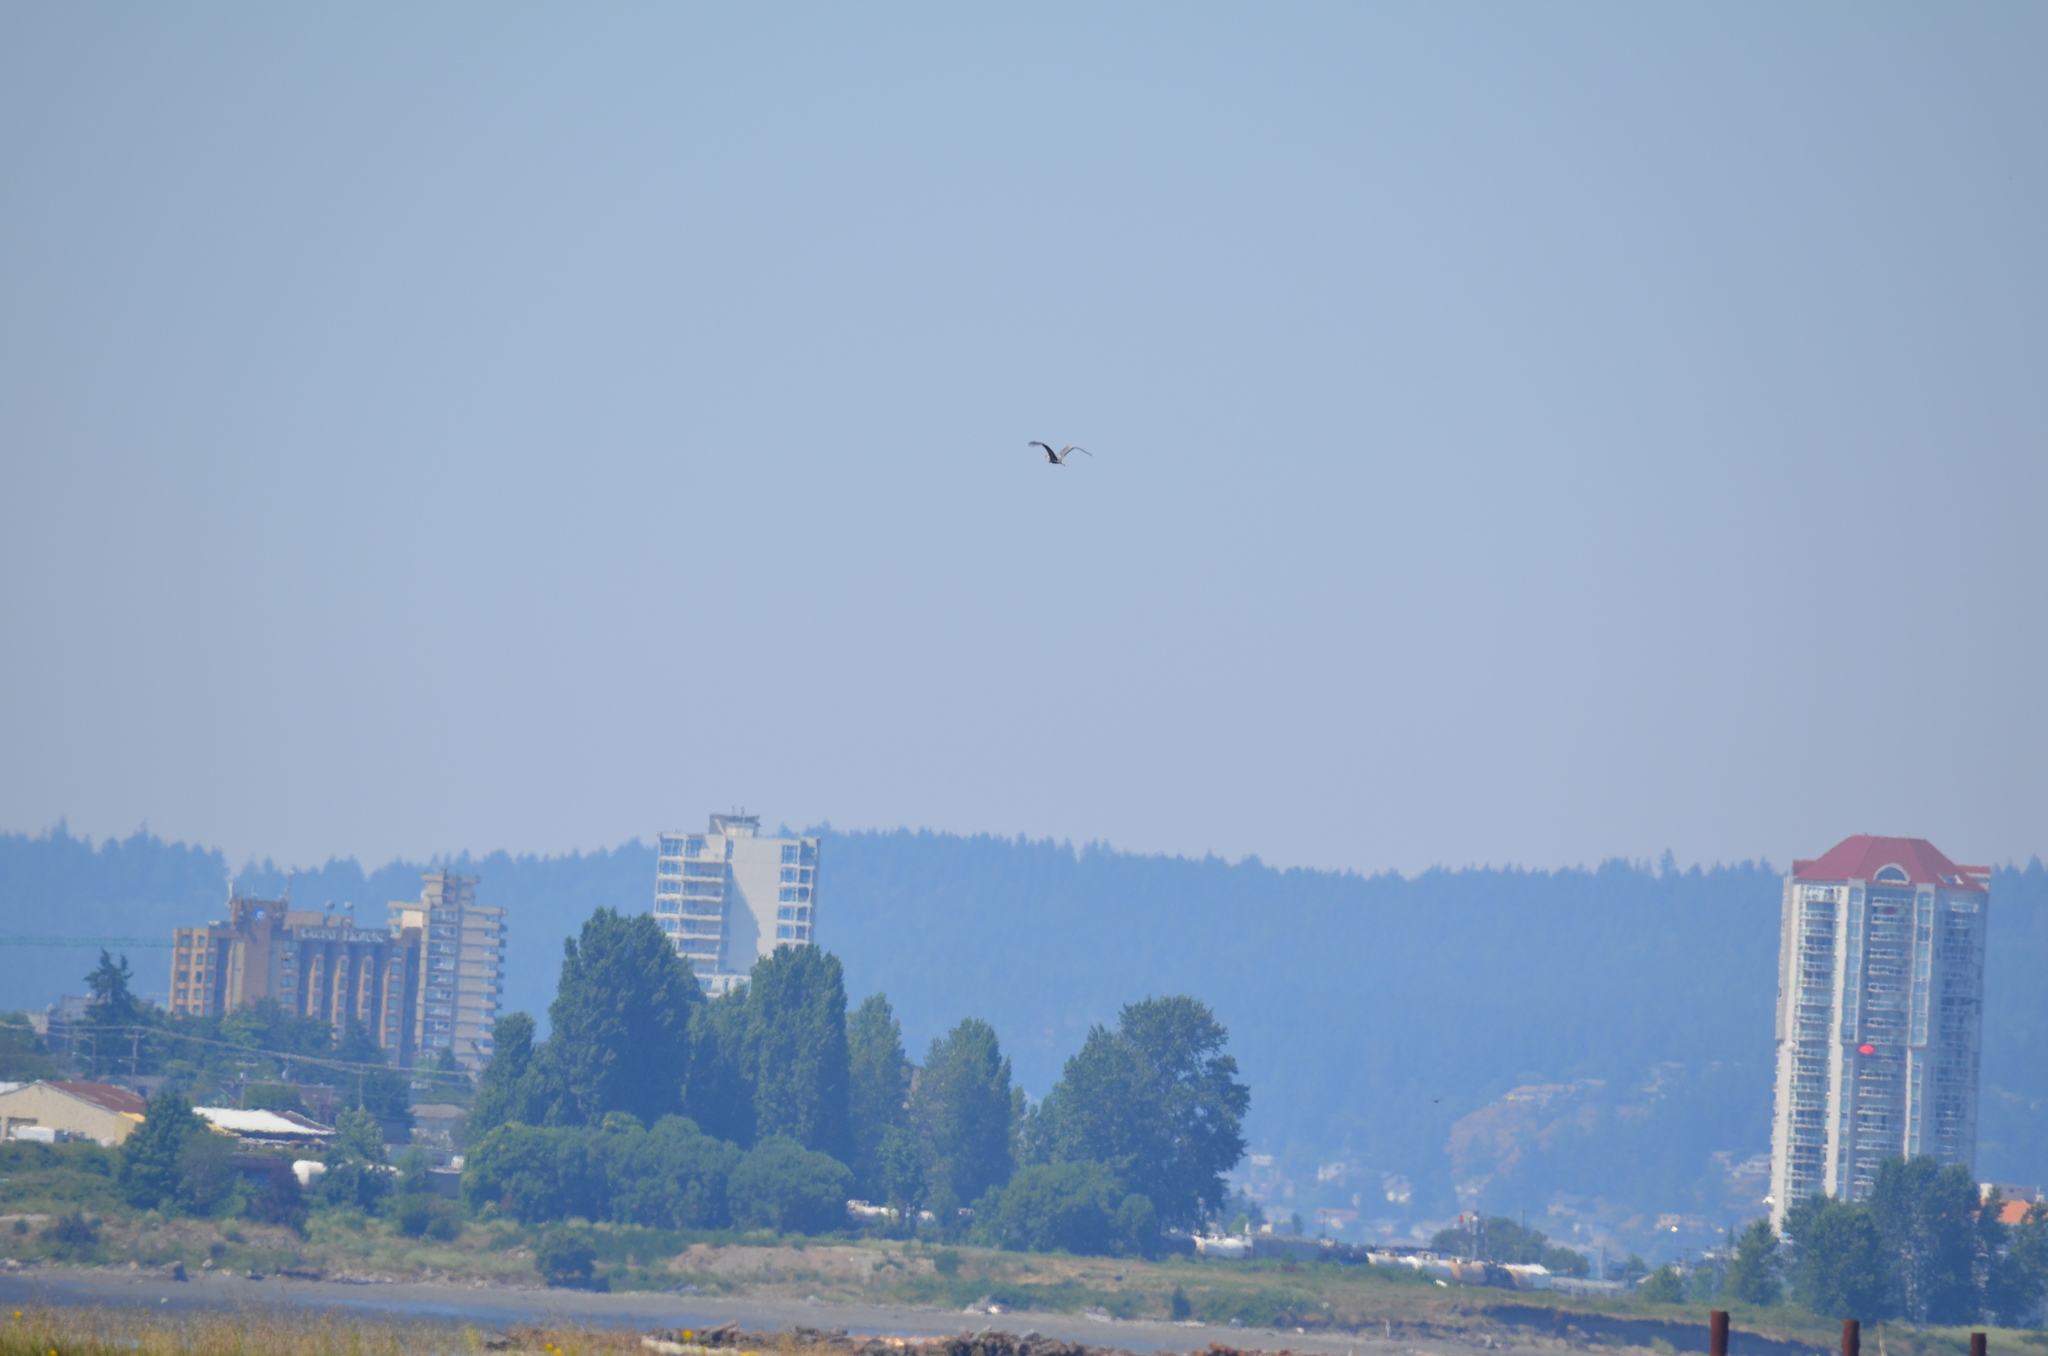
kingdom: Animalia
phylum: Chordata
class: Aves
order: Pelecaniformes
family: Ardeidae
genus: Ardea
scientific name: Ardea herodias
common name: Great blue heron
